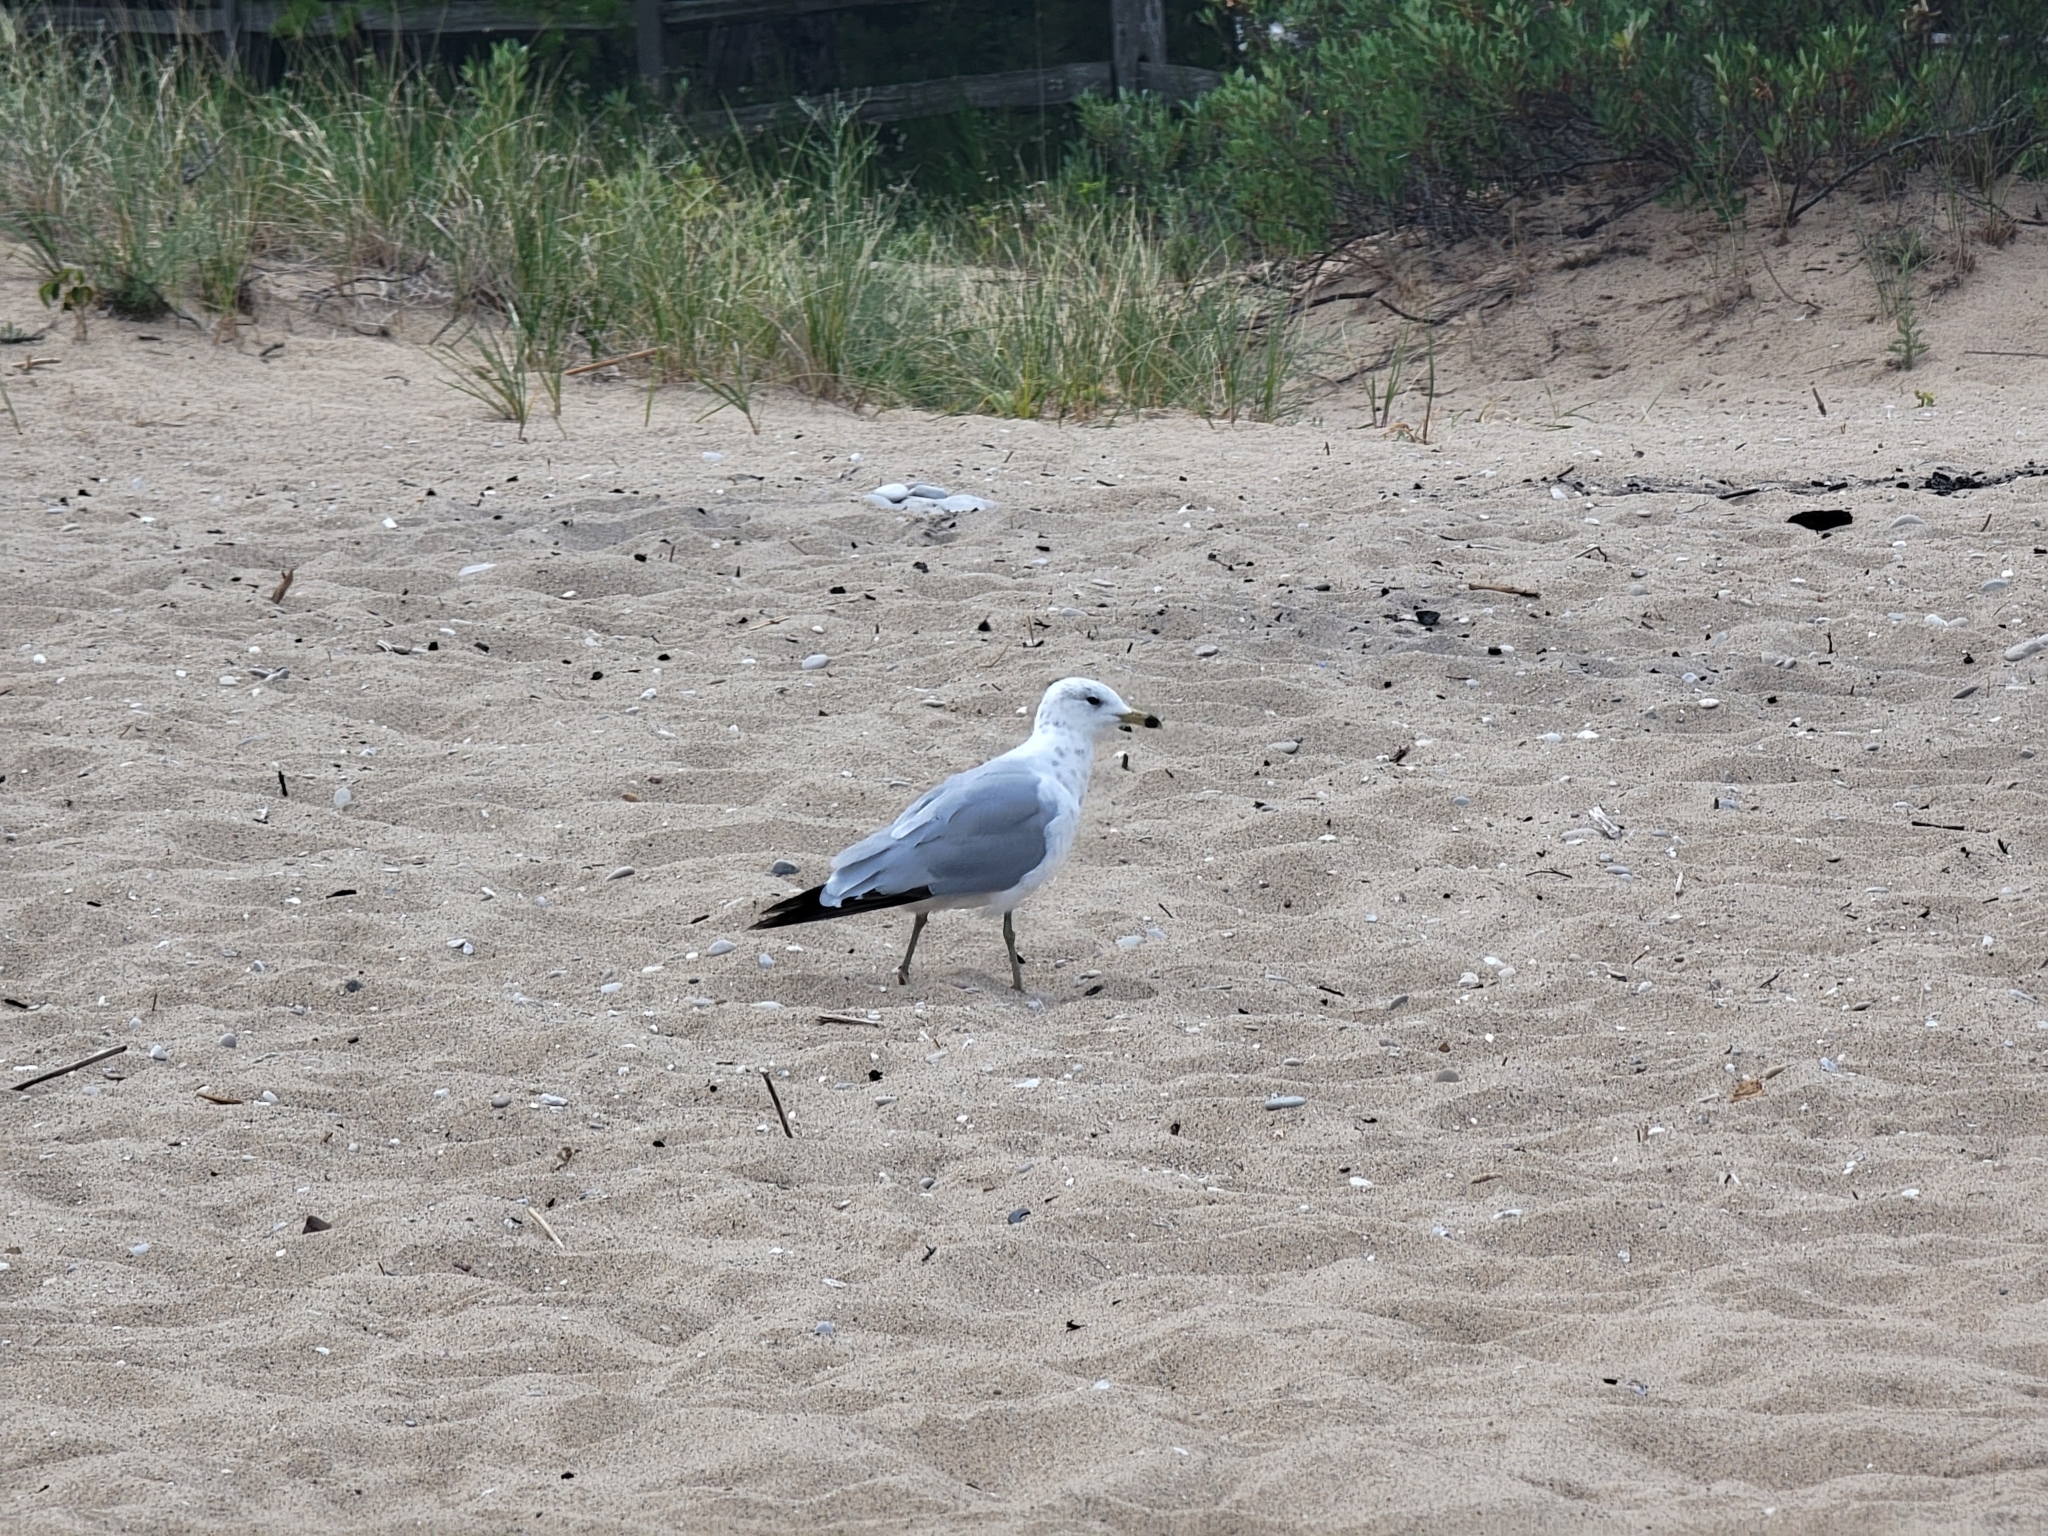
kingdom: Animalia
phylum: Chordata
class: Aves
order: Charadriiformes
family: Laridae
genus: Larus
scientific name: Larus delawarensis
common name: Ring-billed gull
